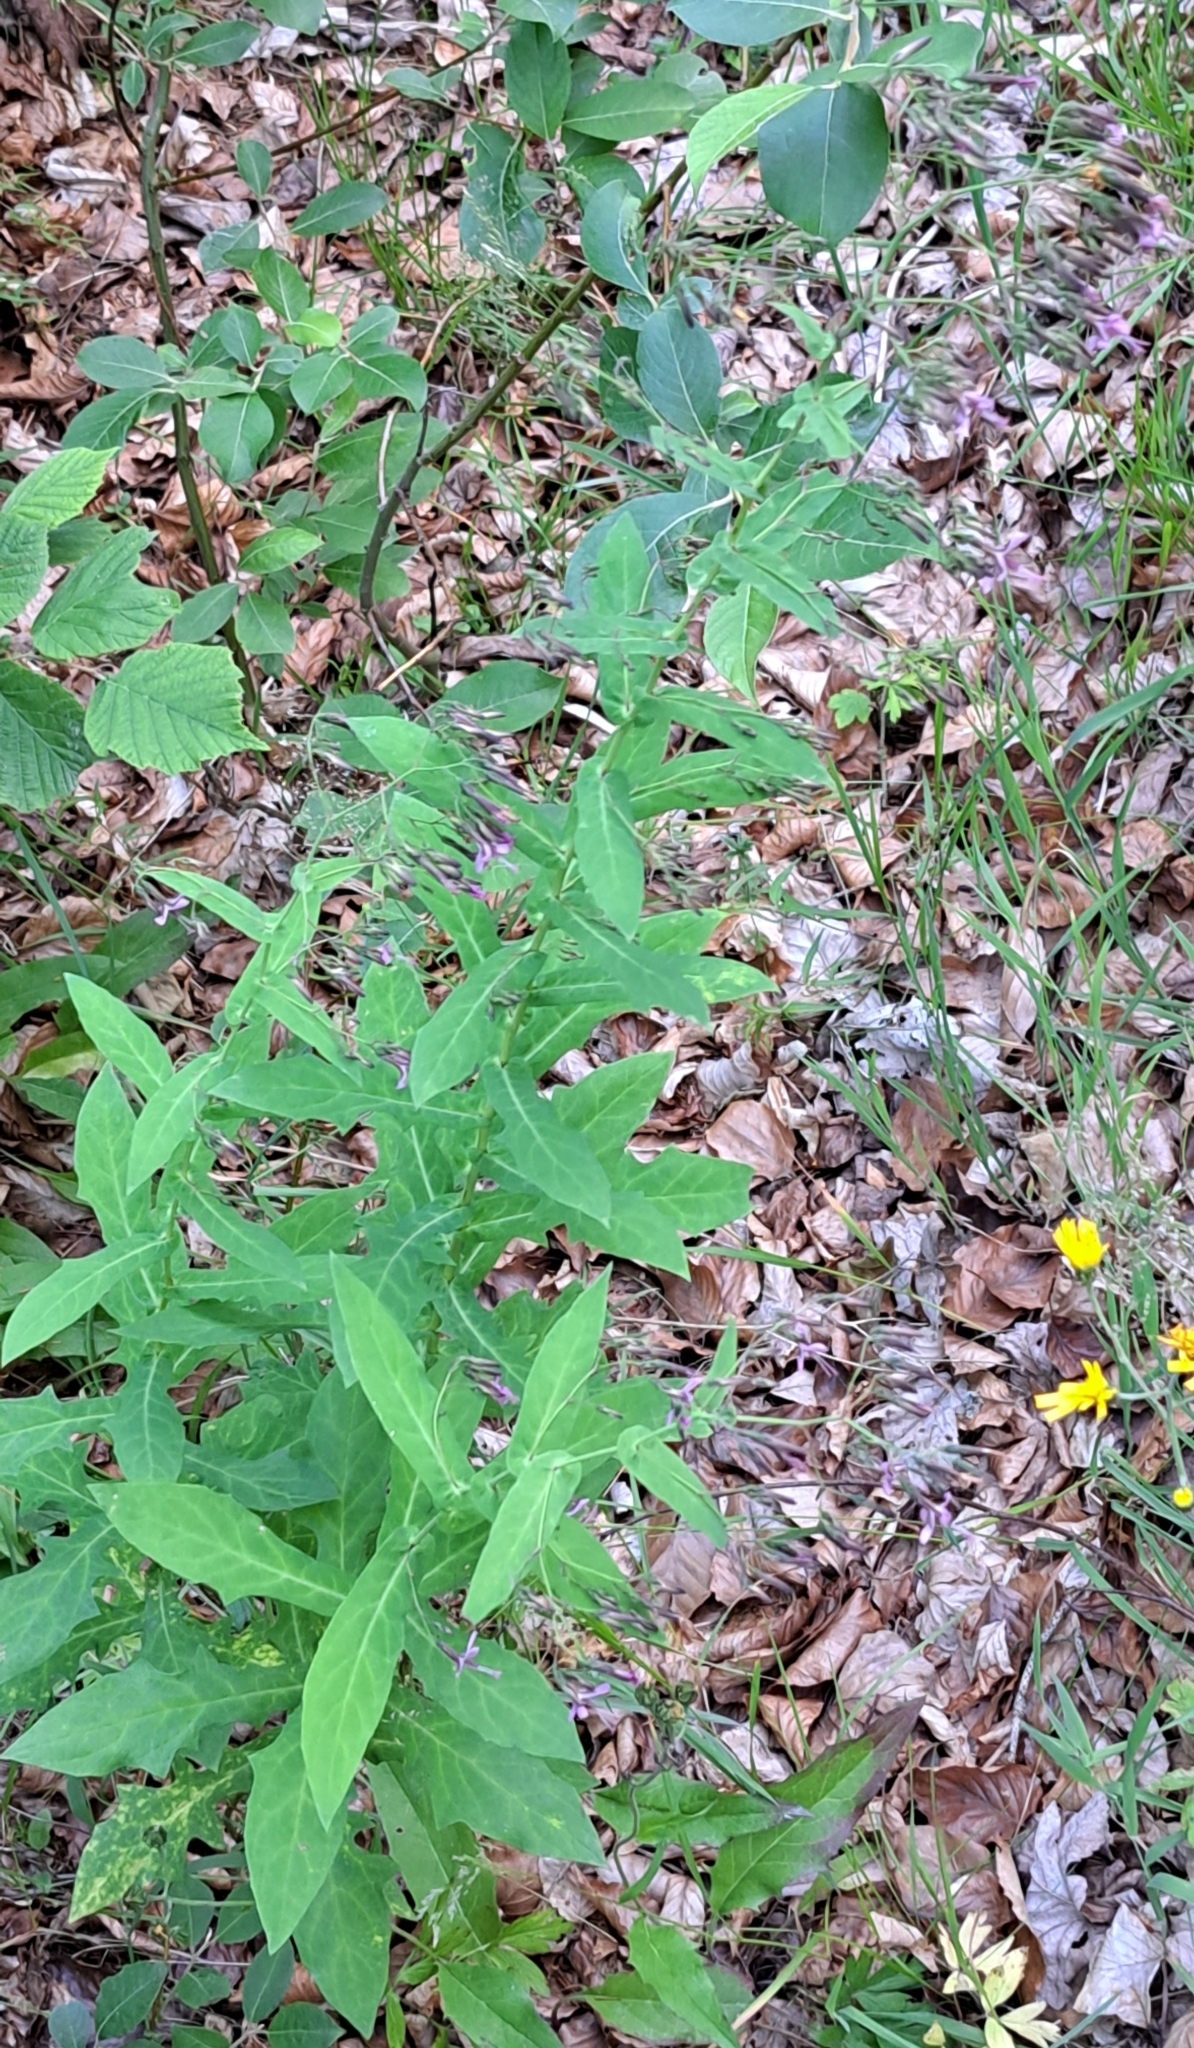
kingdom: Plantae
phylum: Tracheophyta
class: Magnoliopsida
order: Asterales
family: Asteraceae
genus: Prenanthes
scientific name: Prenanthes purpurea
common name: Purple lettuce
